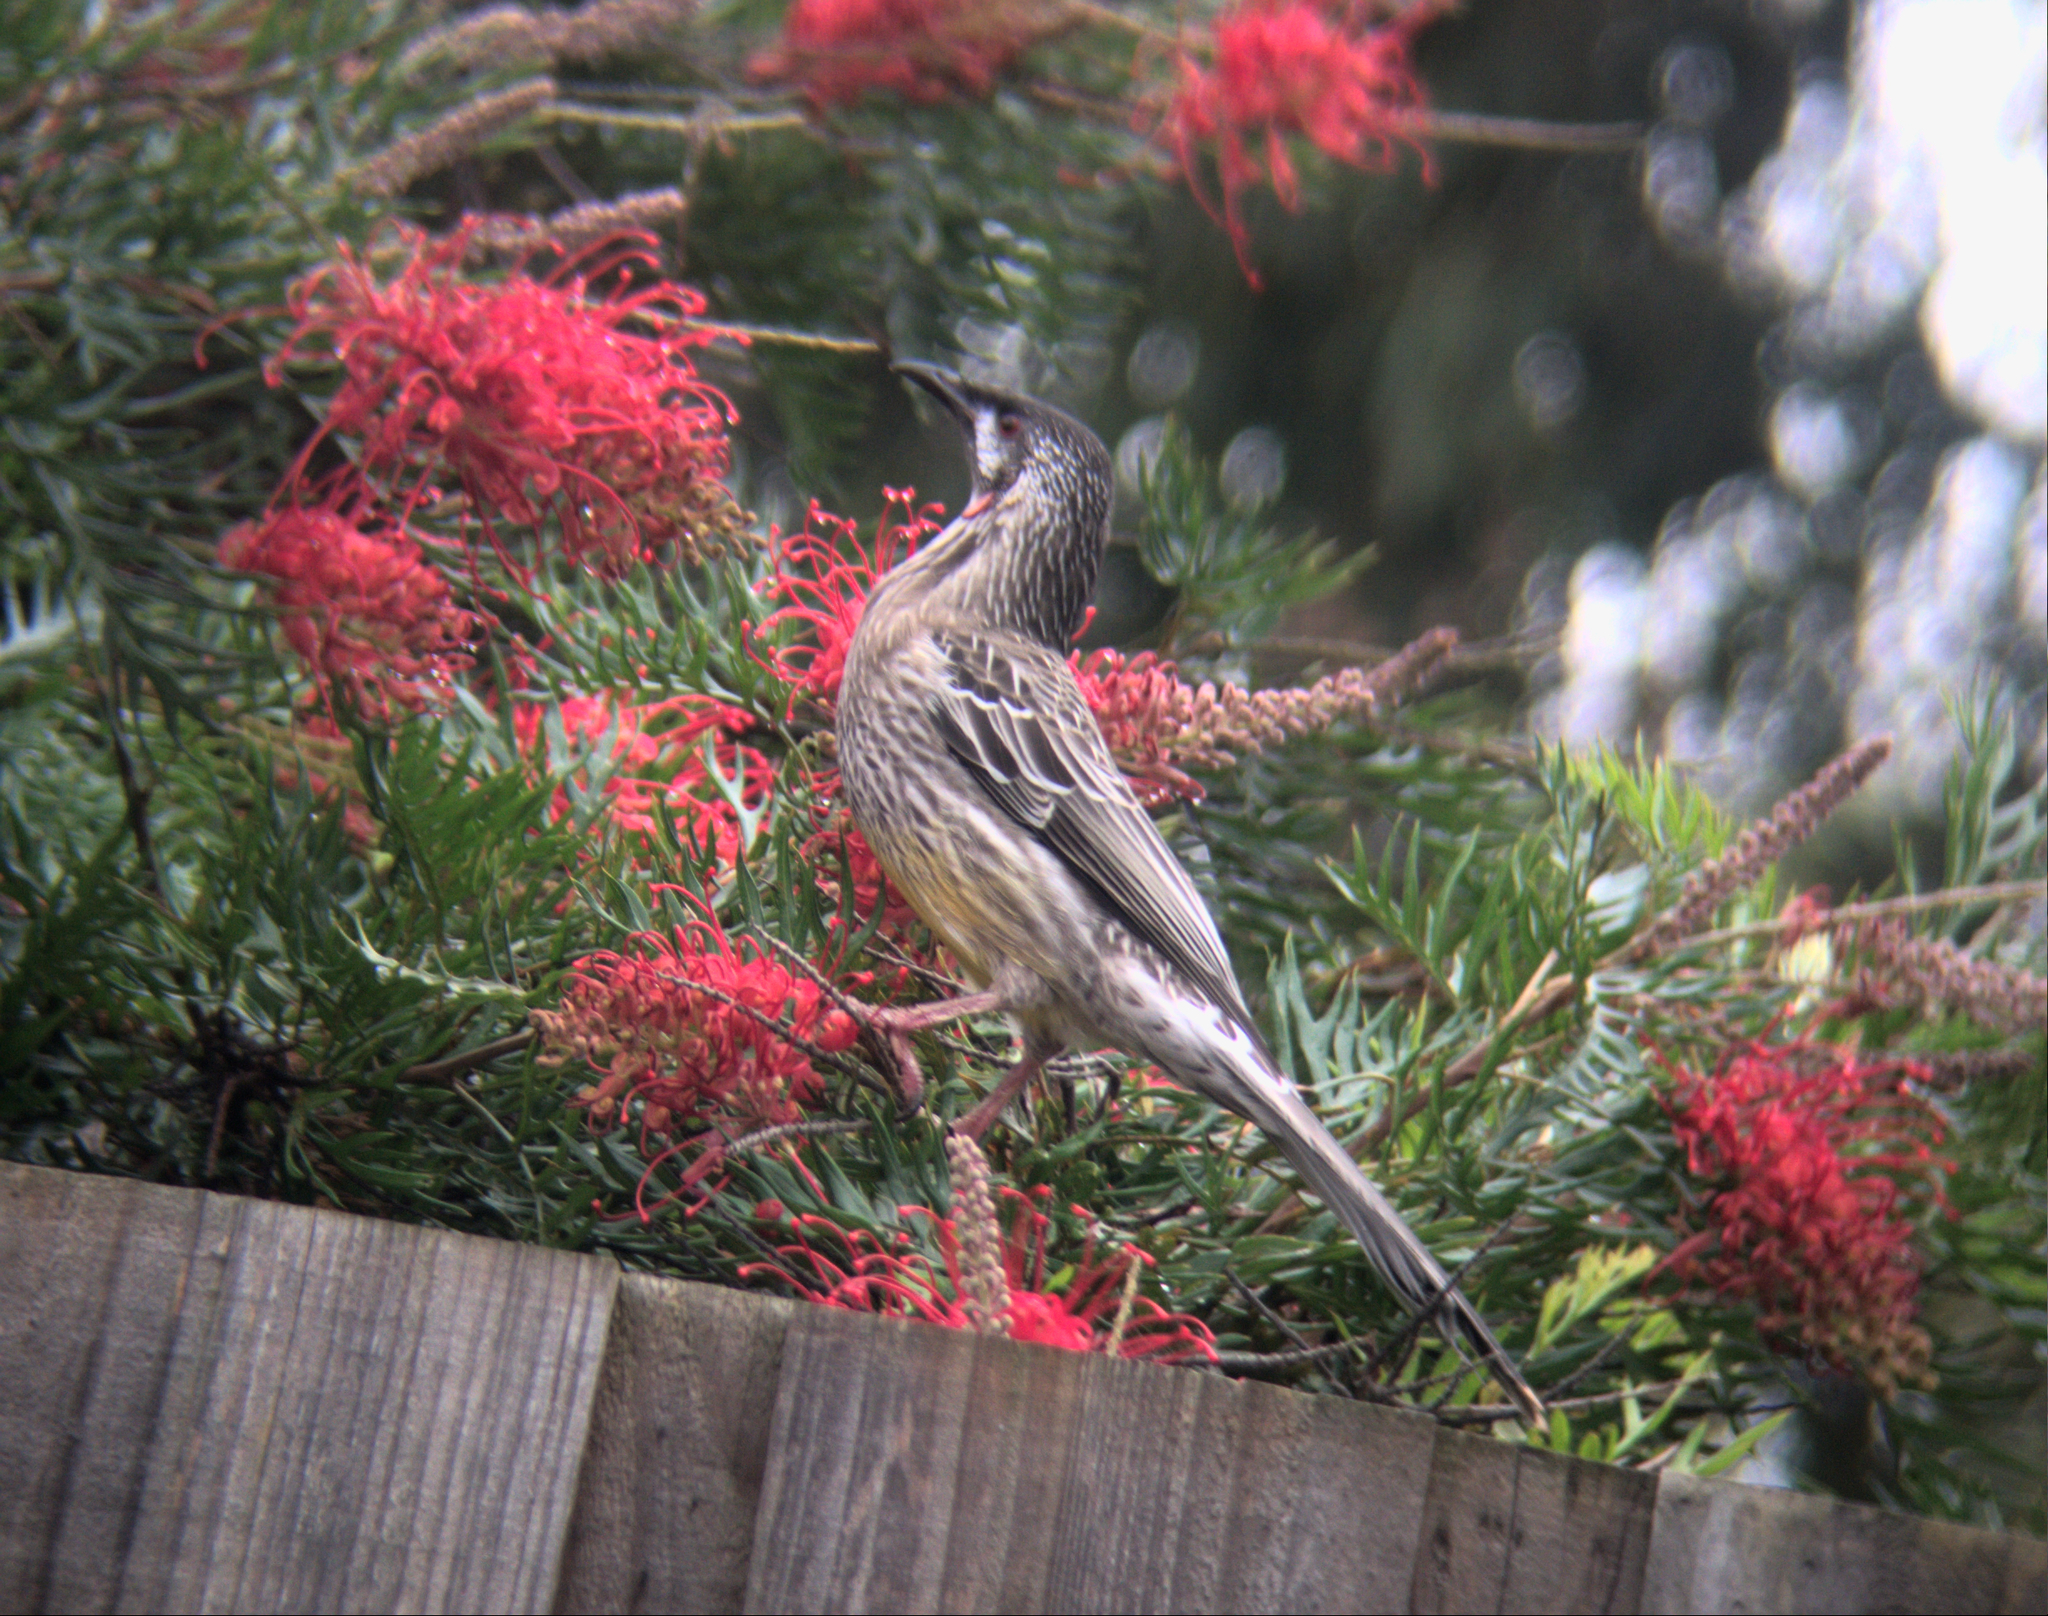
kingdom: Animalia
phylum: Chordata
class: Aves
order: Passeriformes
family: Meliphagidae
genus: Anthochaera
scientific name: Anthochaera carunculata
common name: Red wattlebird
